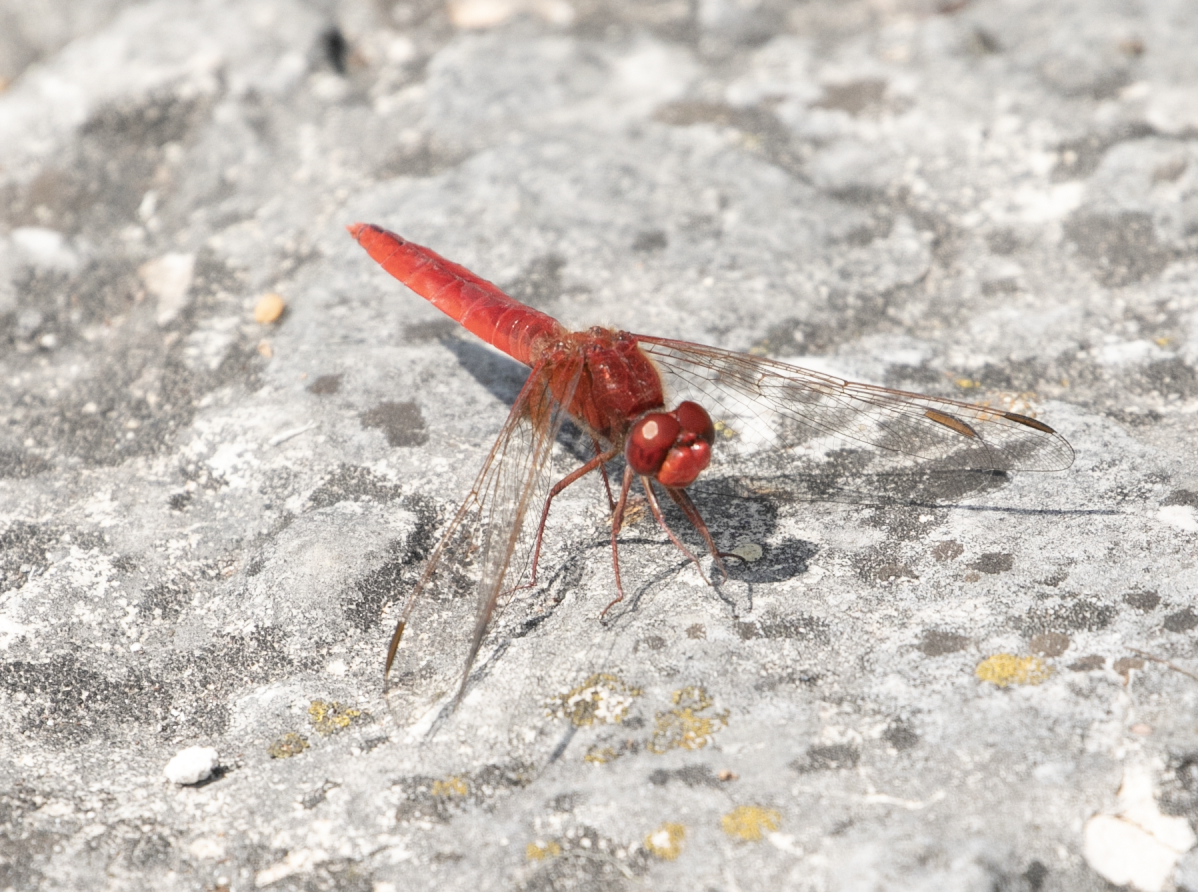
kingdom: Animalia
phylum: Arthropoda
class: Insecta
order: Odonata
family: Libellulidae
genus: Crocothemis
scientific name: Crocothemis erythraea
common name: Scarlet dragonfly
